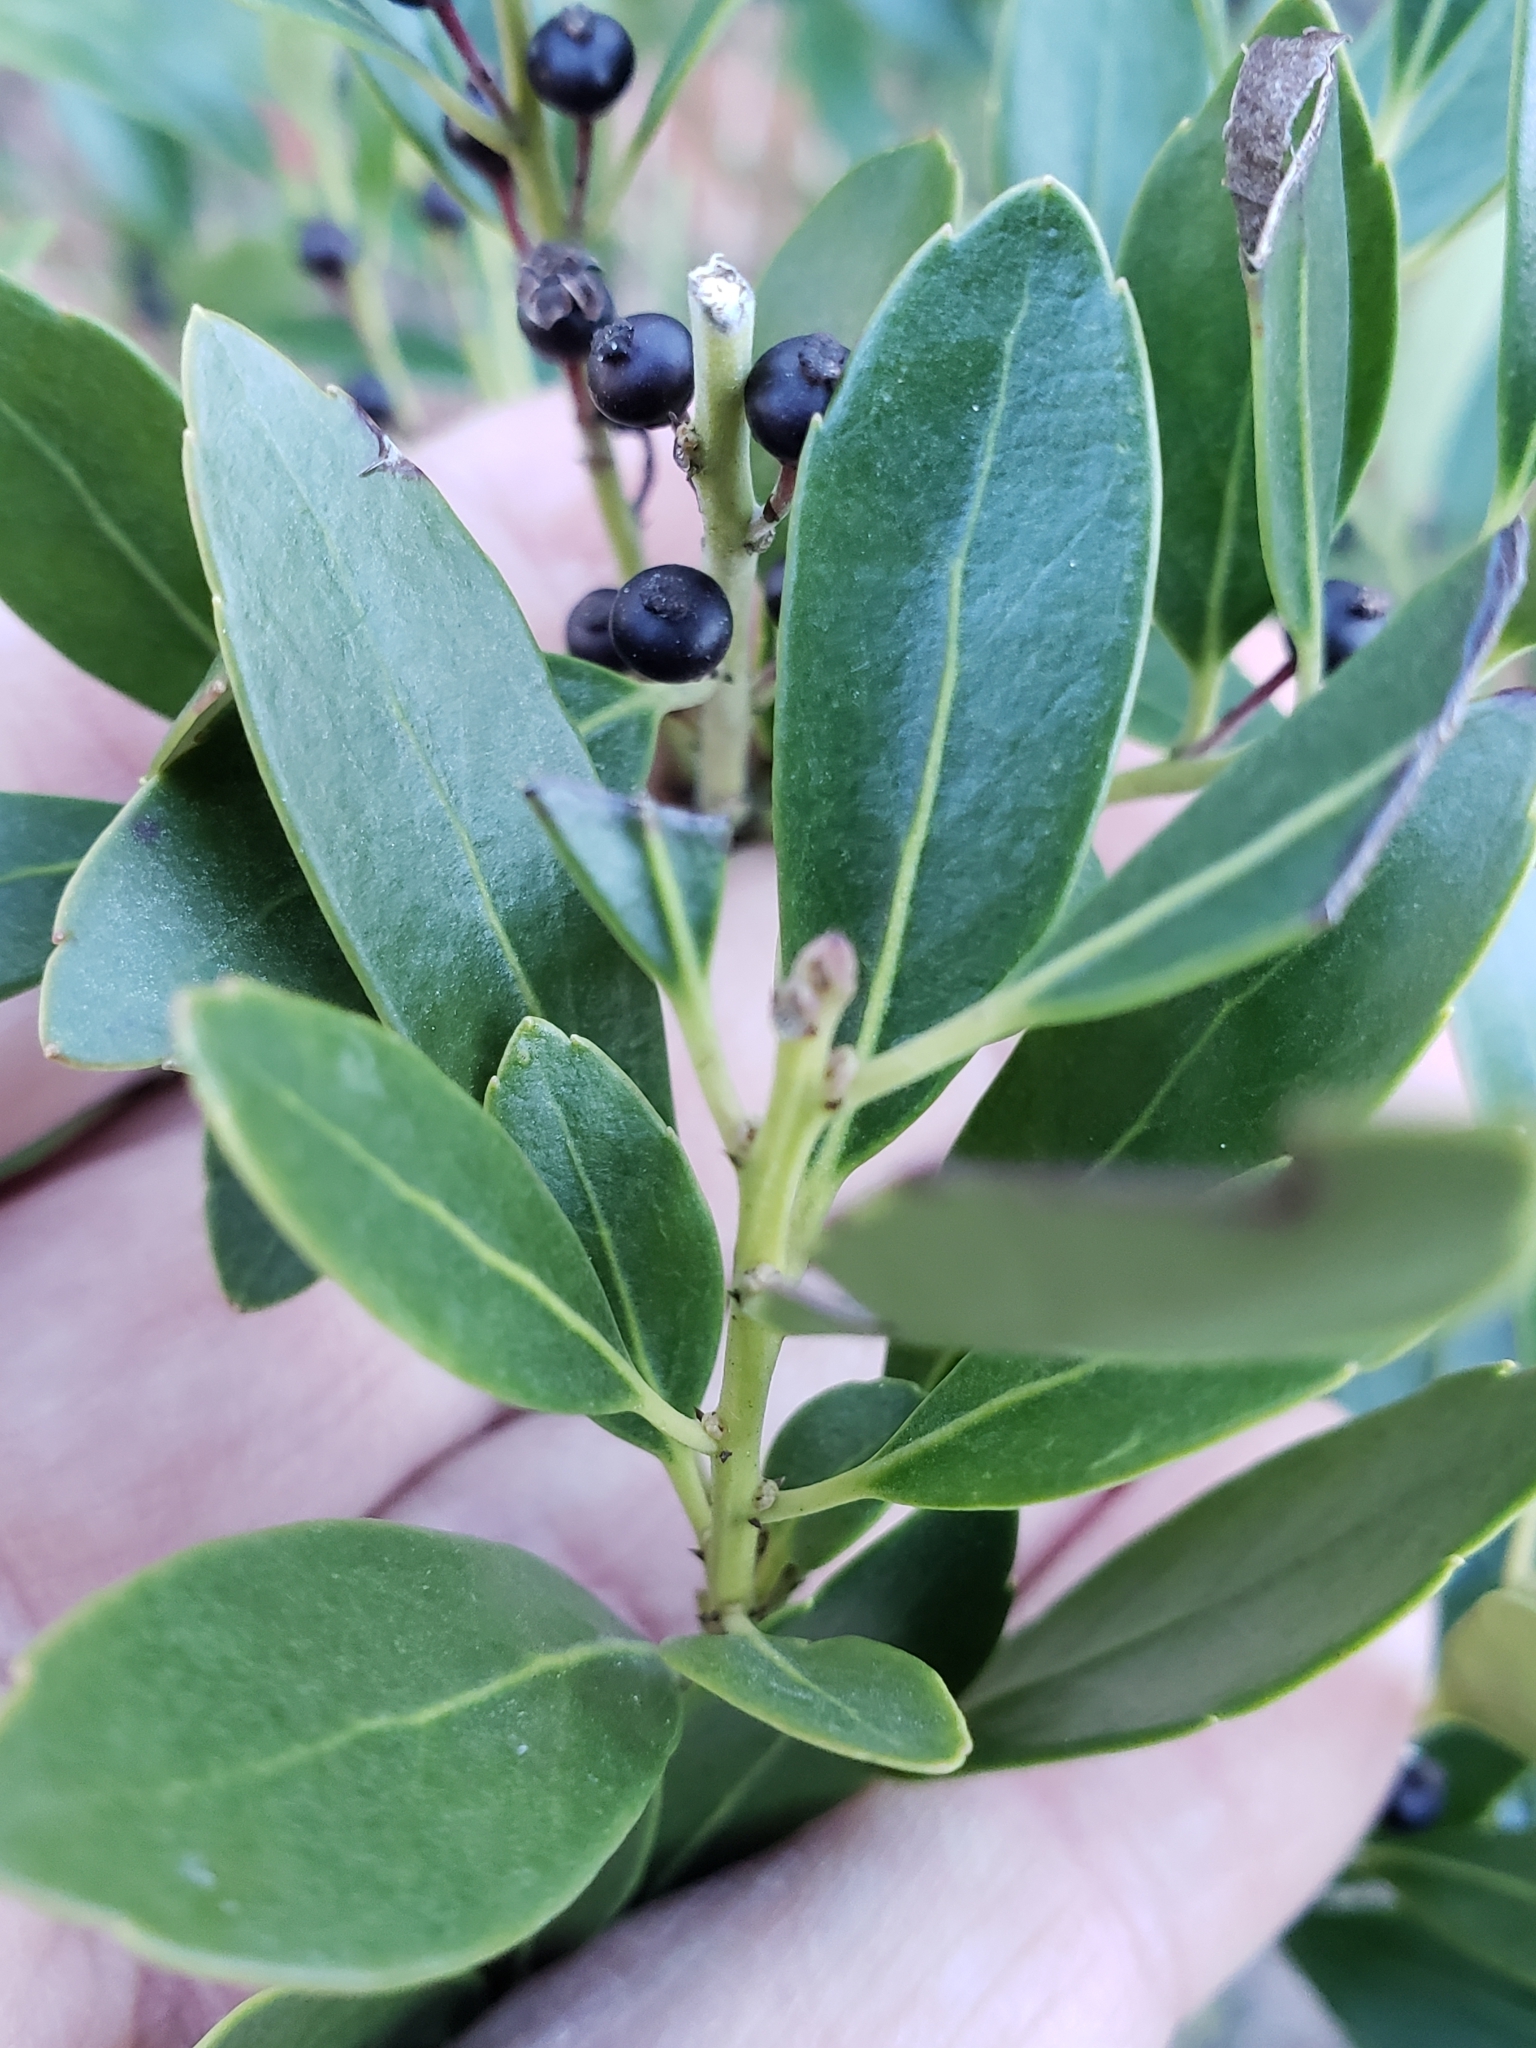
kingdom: Plantae
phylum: Tracheophyta
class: Magnoliopsida
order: Aquifoliales
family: Aquifoliaceae
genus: Ilex
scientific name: Ilex glabra
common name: Bitter gallberry
